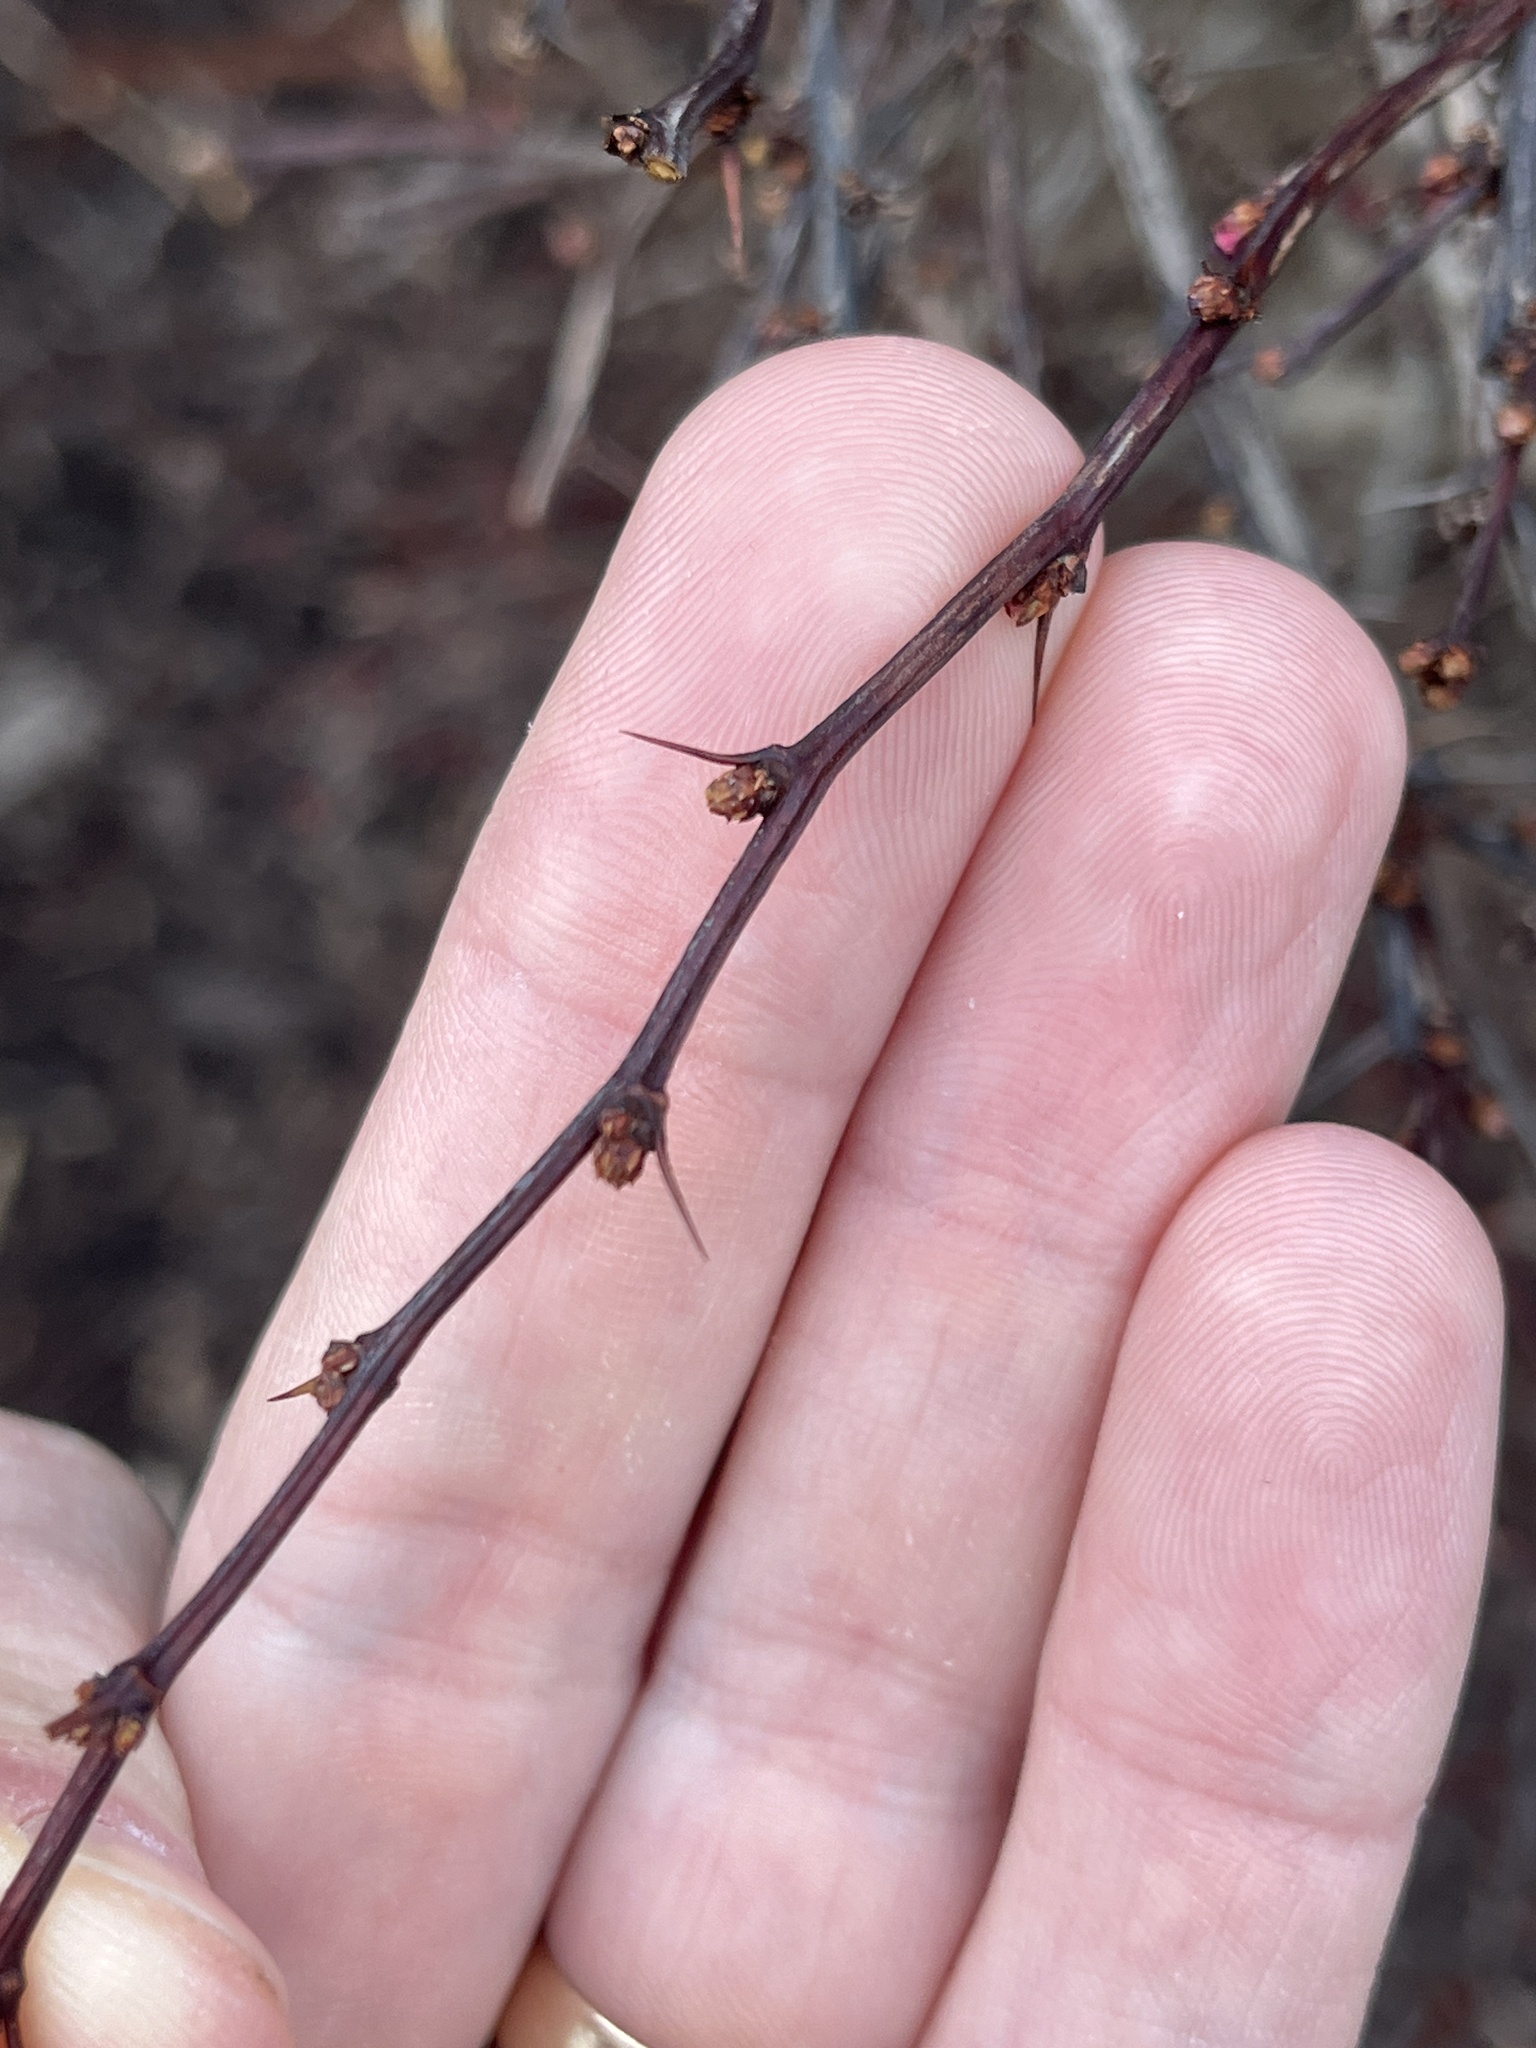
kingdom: Plantae
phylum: Tracheophyta
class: Magnoliopsida
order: Ranunculales
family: Berberidaceae
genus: Berberis
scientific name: Berberis thunbergii
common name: Japanese barberry
